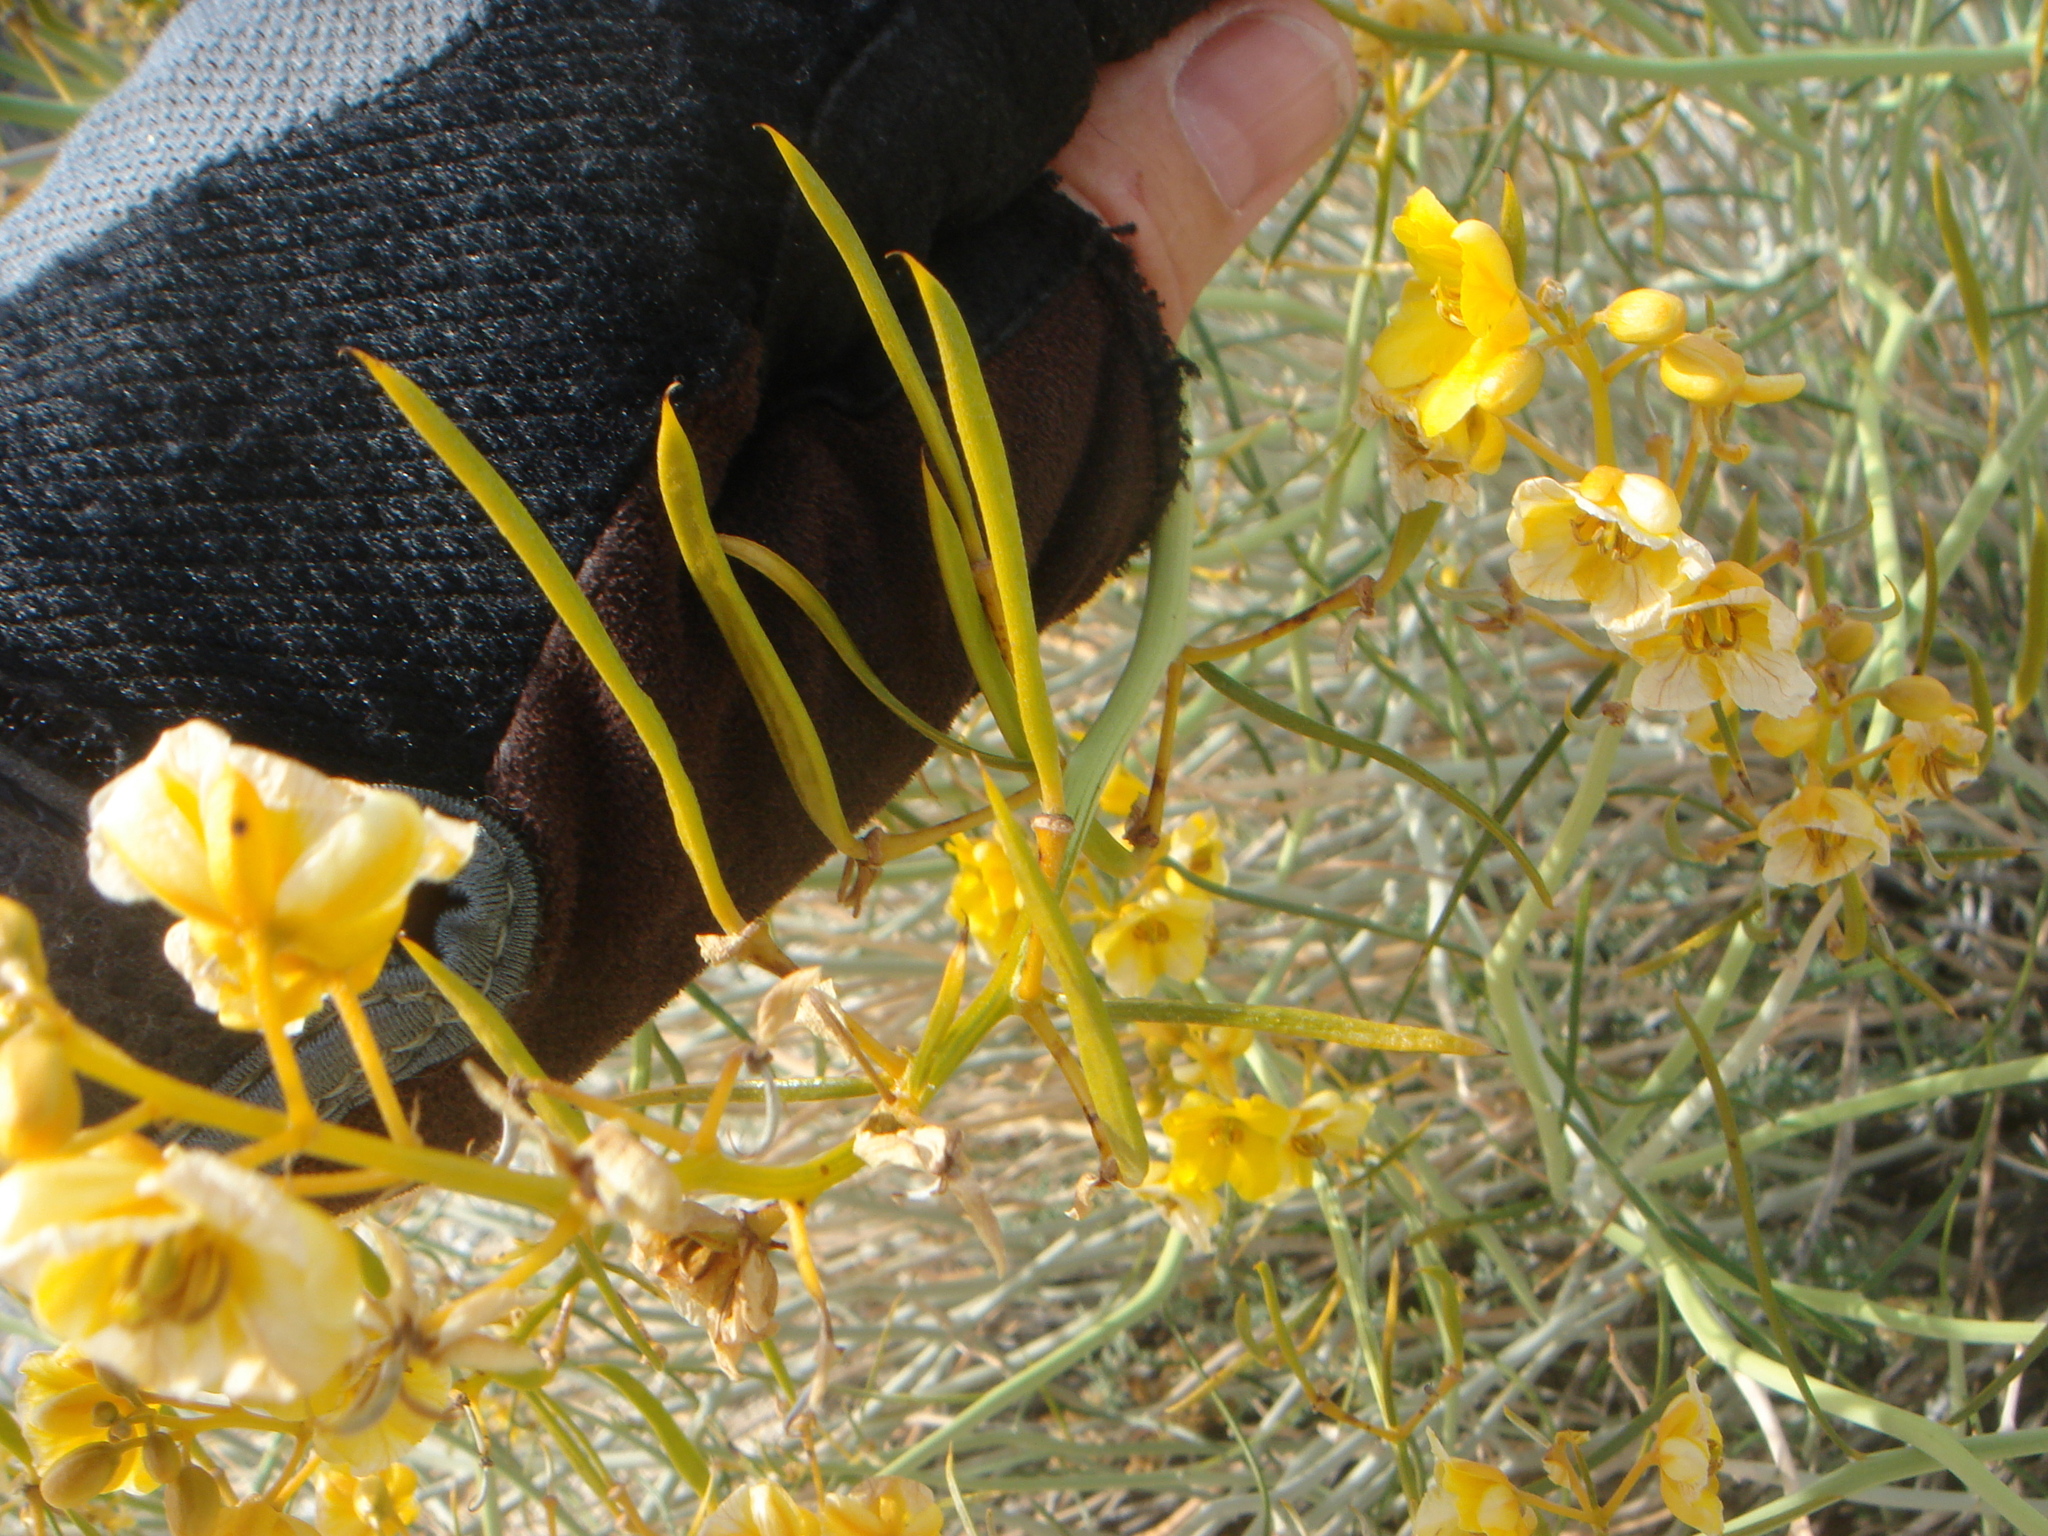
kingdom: Plantae
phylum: Tracheophyta
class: Magnoliopsida
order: Fabales
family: Fabaceae
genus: Senna
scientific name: Senna armata
